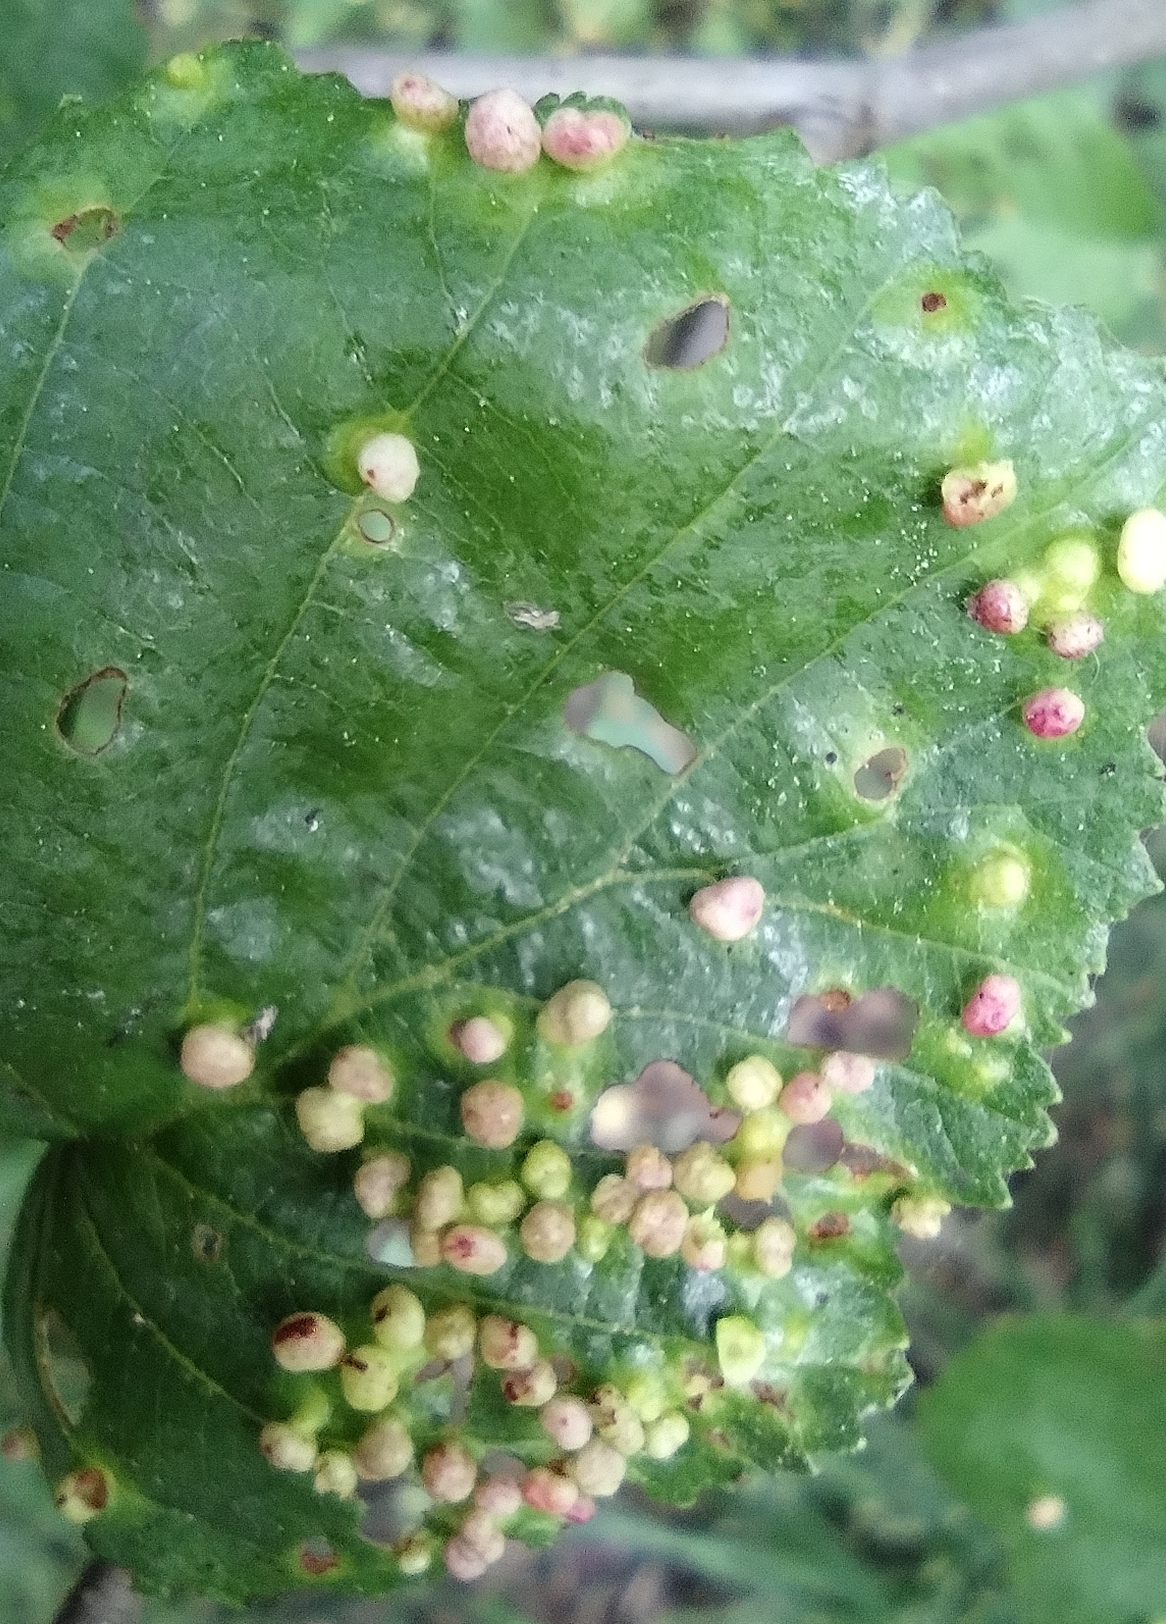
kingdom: Animalia
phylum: Arthropoda
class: Arachnida
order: Trombidiformes
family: Eriophyidae
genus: Eriophyes
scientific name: Eriophyes laevis
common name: Alder leaf gall mite
